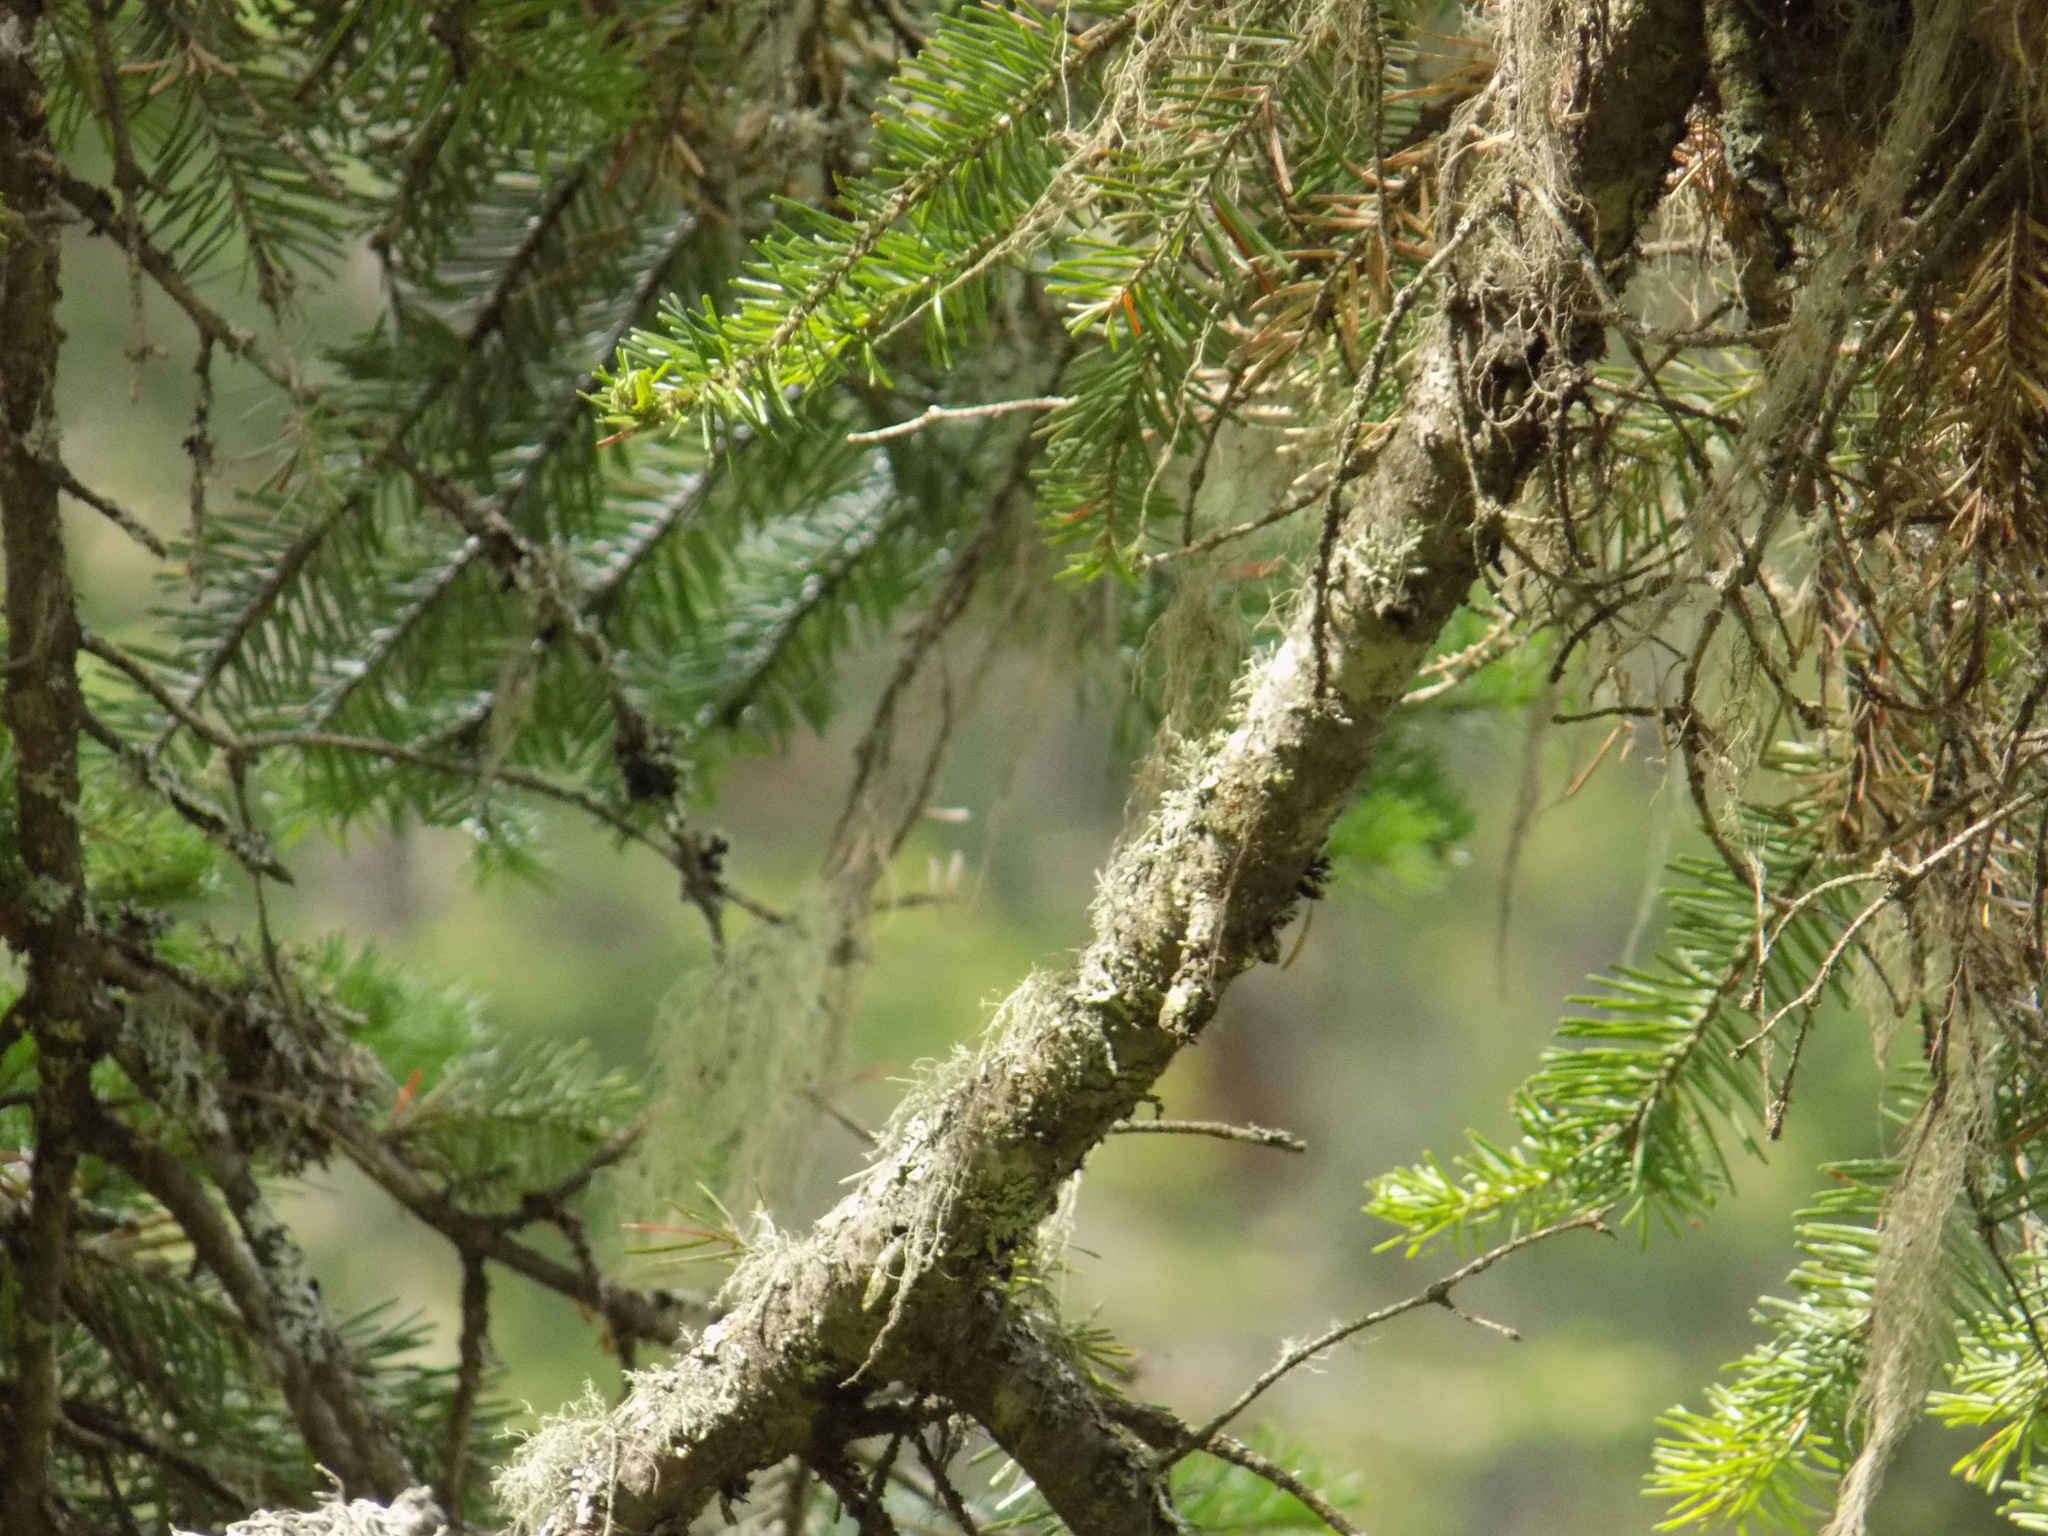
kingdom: Plantae
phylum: Tracheophyta
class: Pinopsida
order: Pinales
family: Pinaceae
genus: Abies
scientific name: Abies sibirica
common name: Siberian fir
